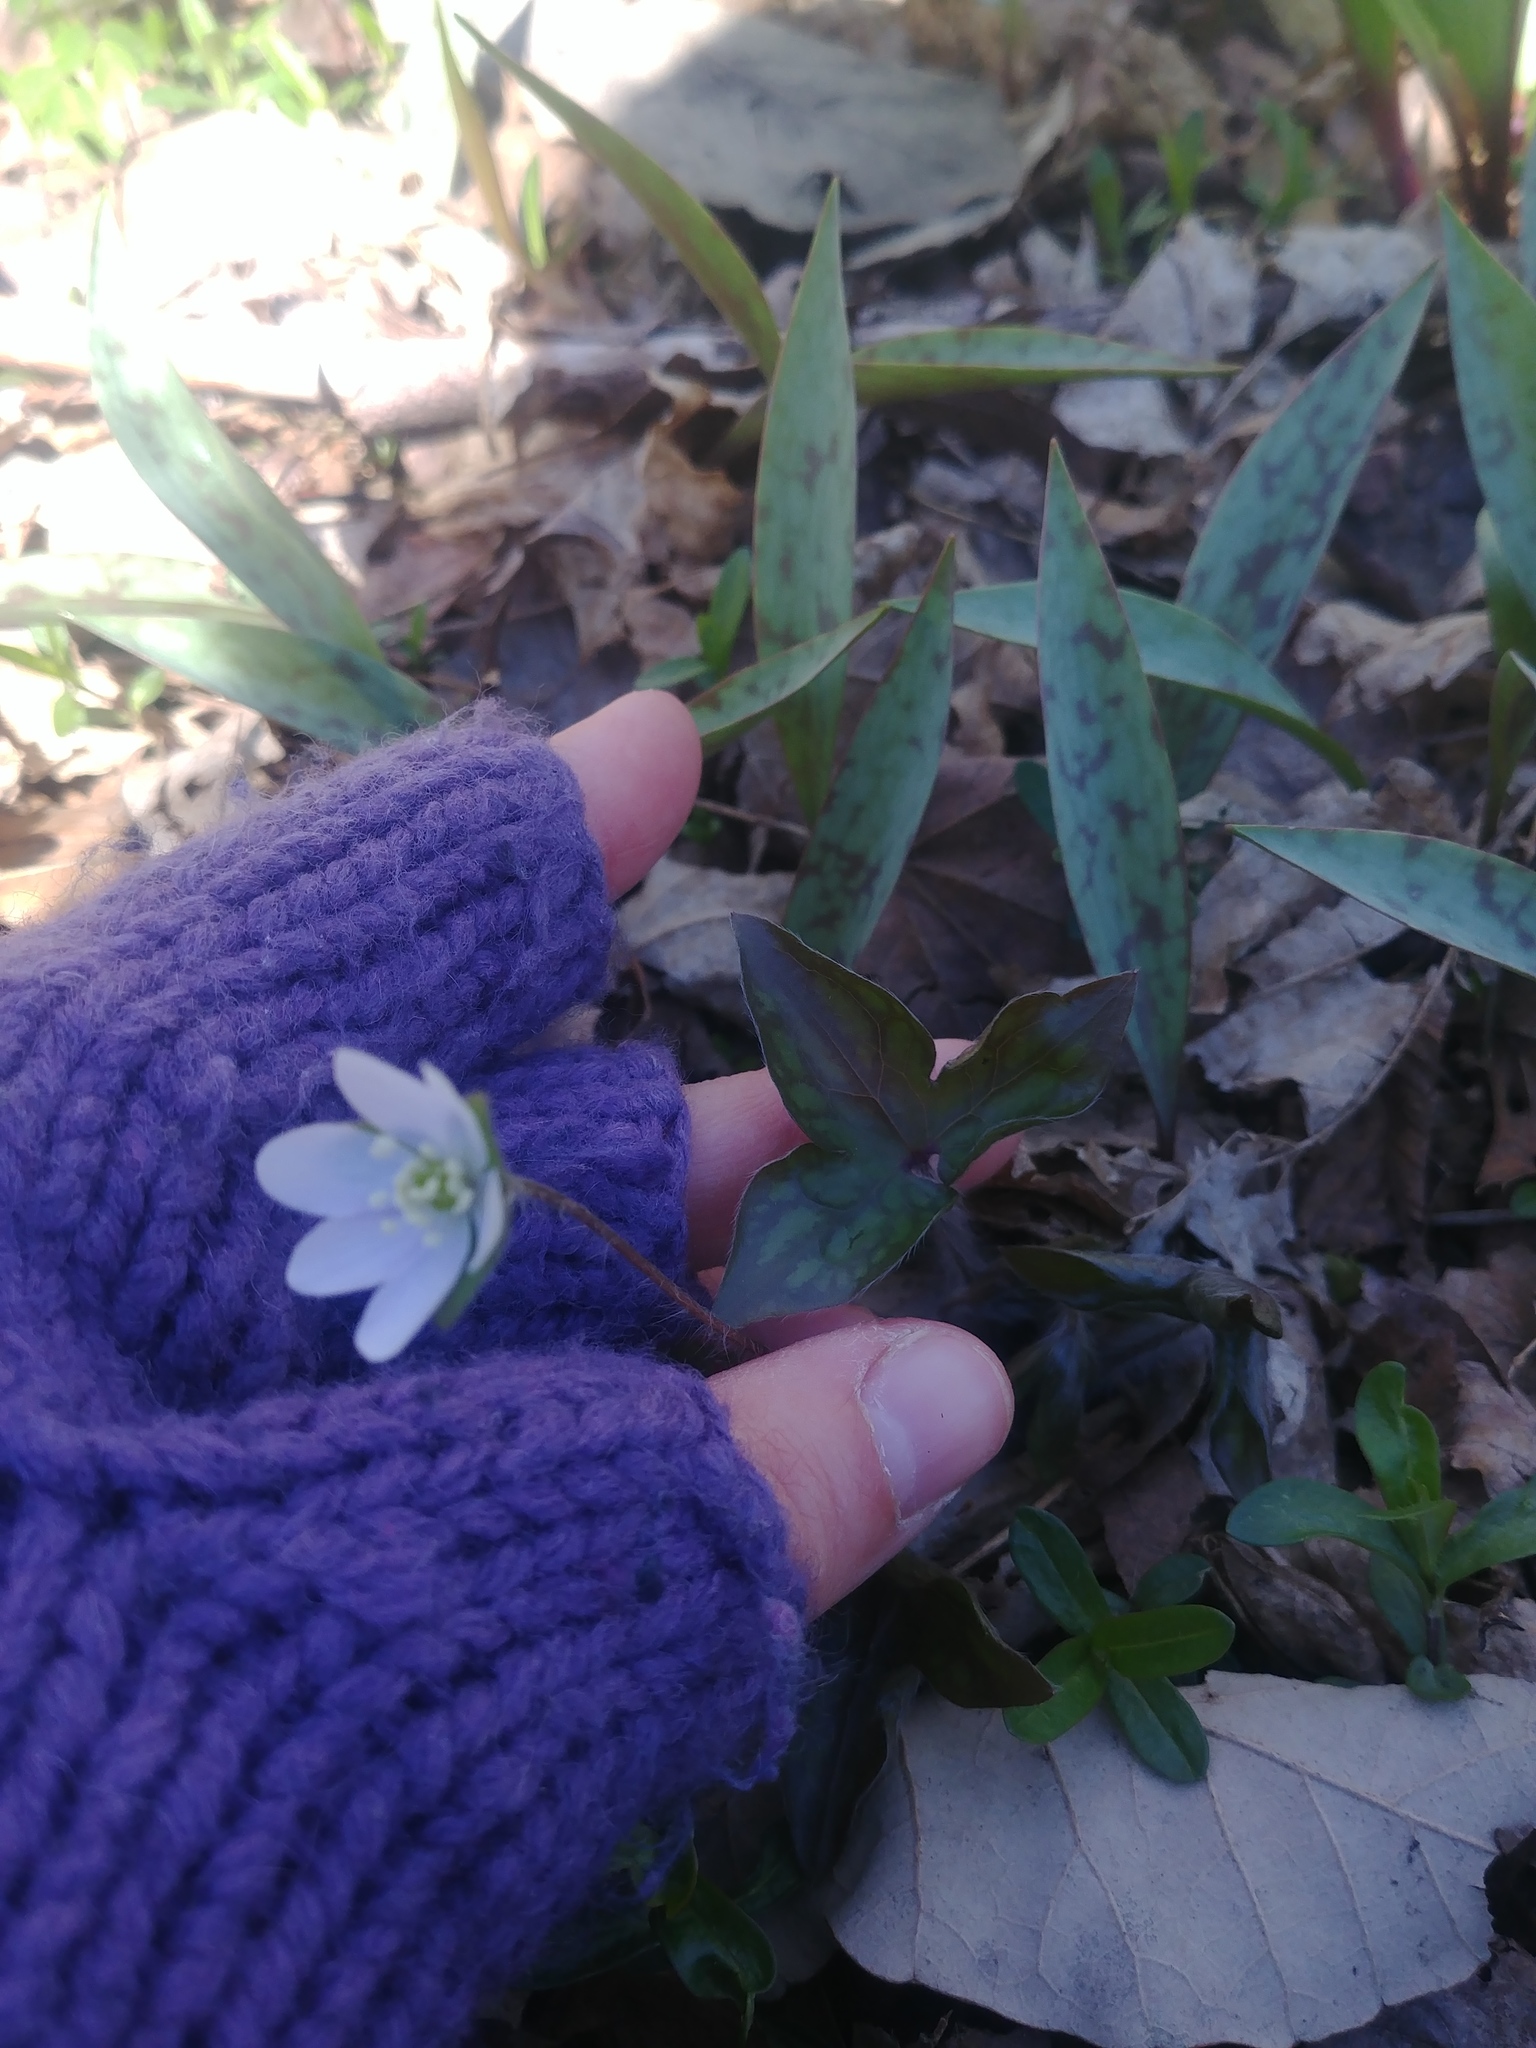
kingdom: Plantae
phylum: Tracheophyta
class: Magnoliopsida
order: Ranunculales
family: Ranunculaceae
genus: Hepatica
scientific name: Hepatica acutiloba
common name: Sharp-lobed hepatica
